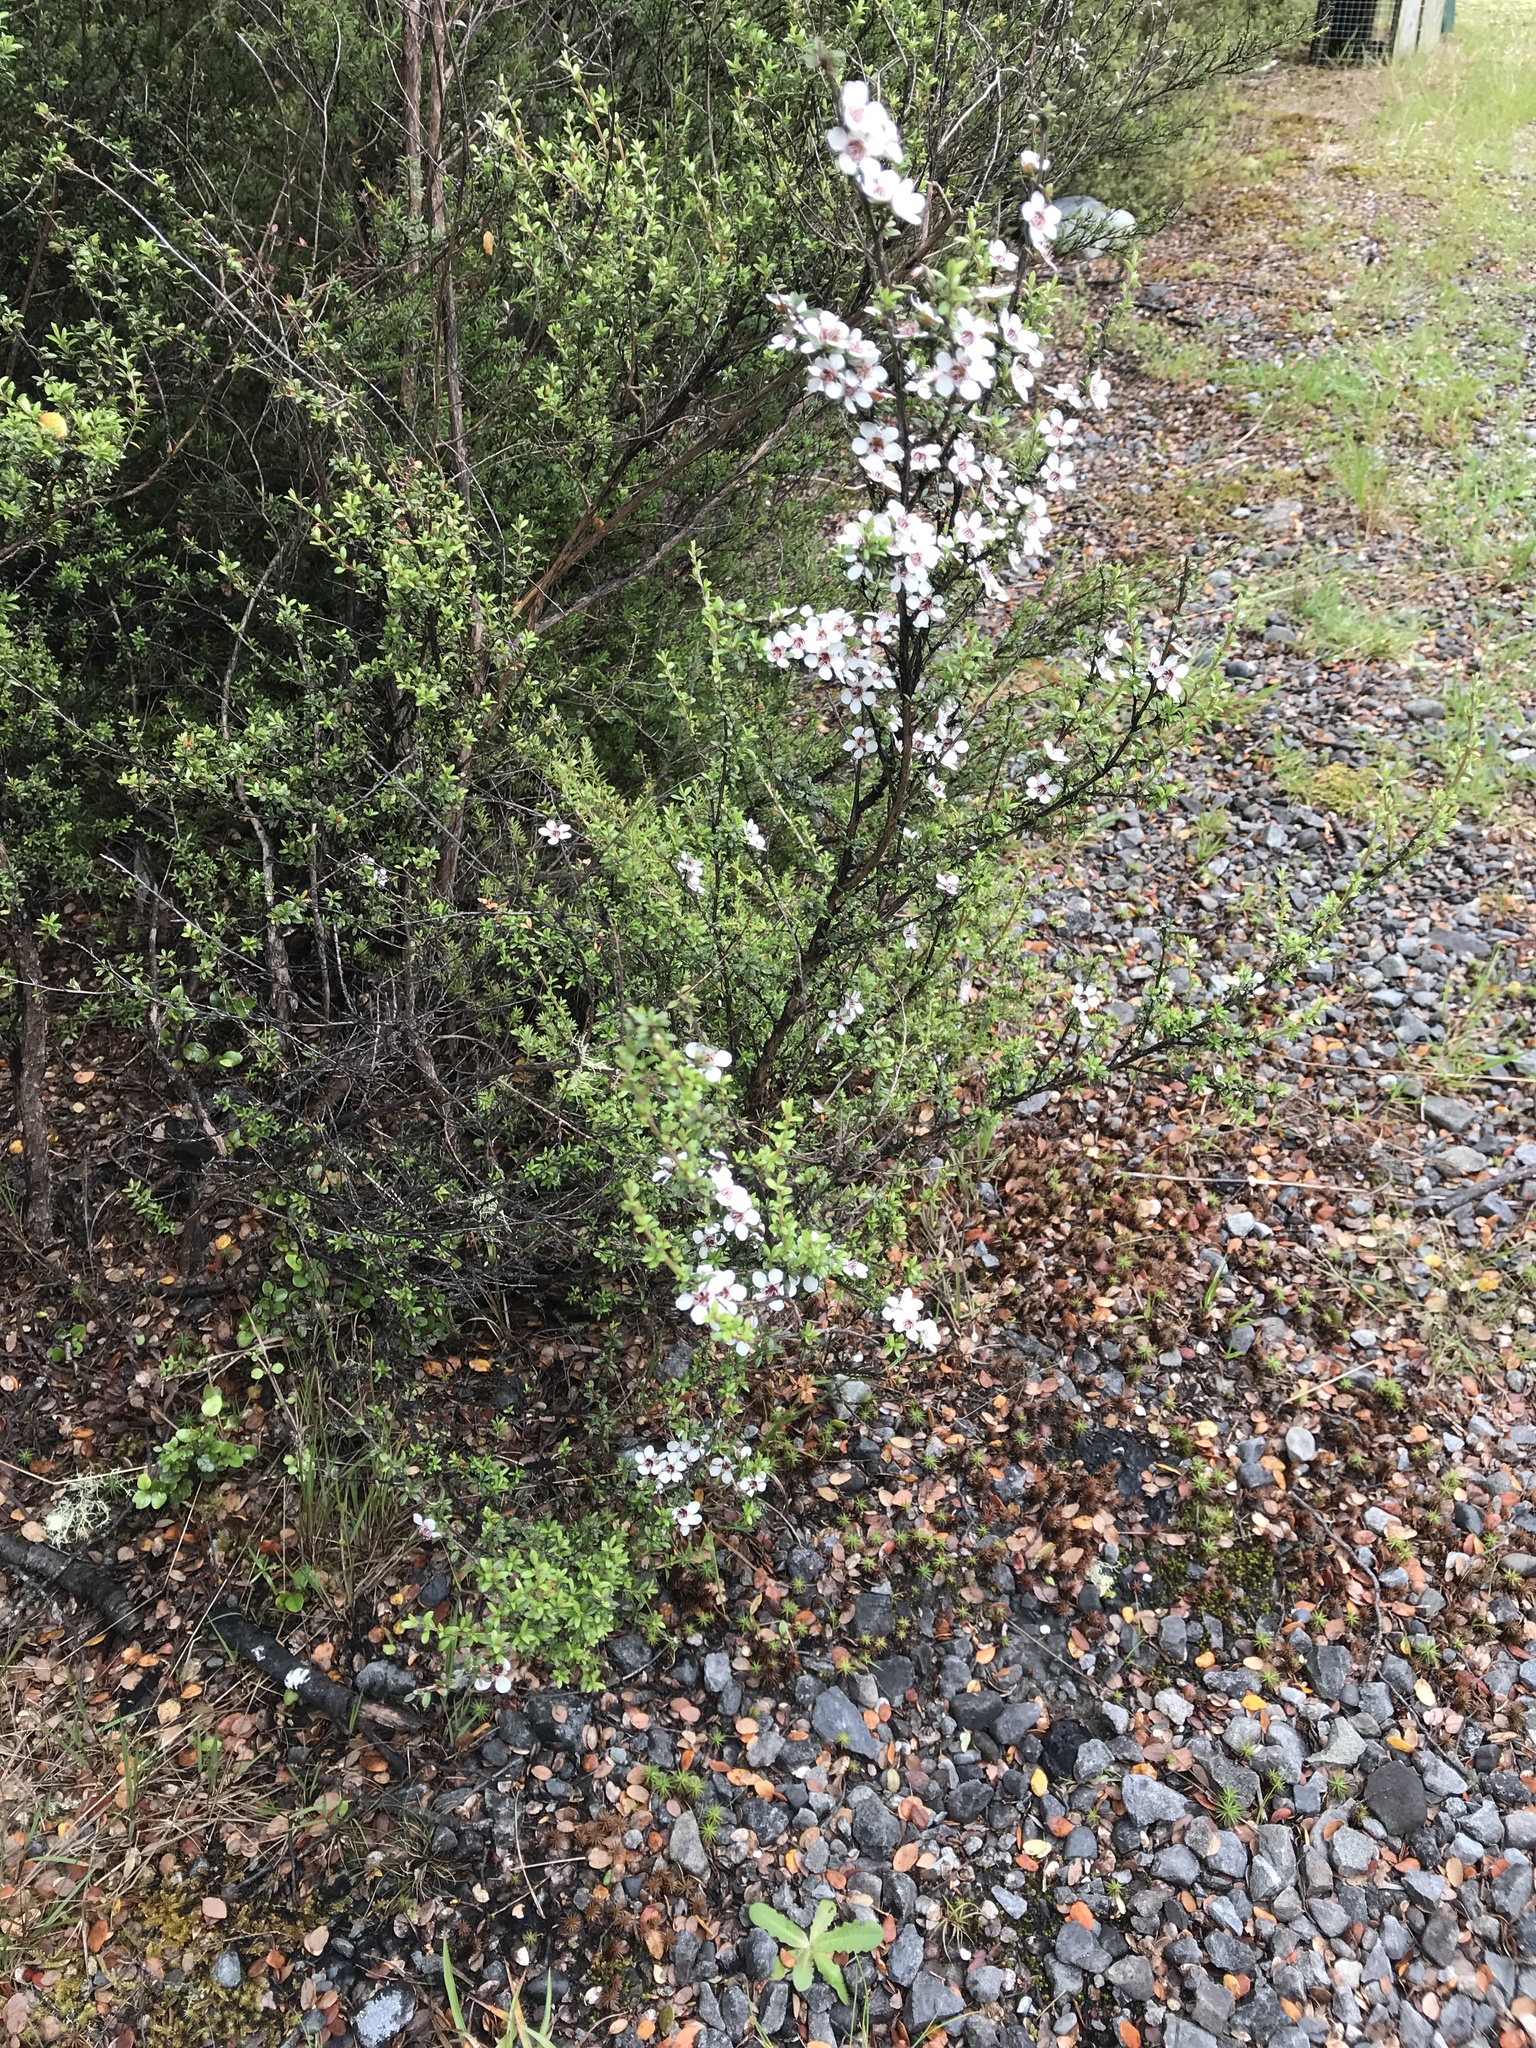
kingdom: Plantae
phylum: Tracheophyta
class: Magnoliopsida
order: Myrtales
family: Myrtaceae
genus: Leptospermum
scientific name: Leptospermum scoparium
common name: Broom tea-tree
